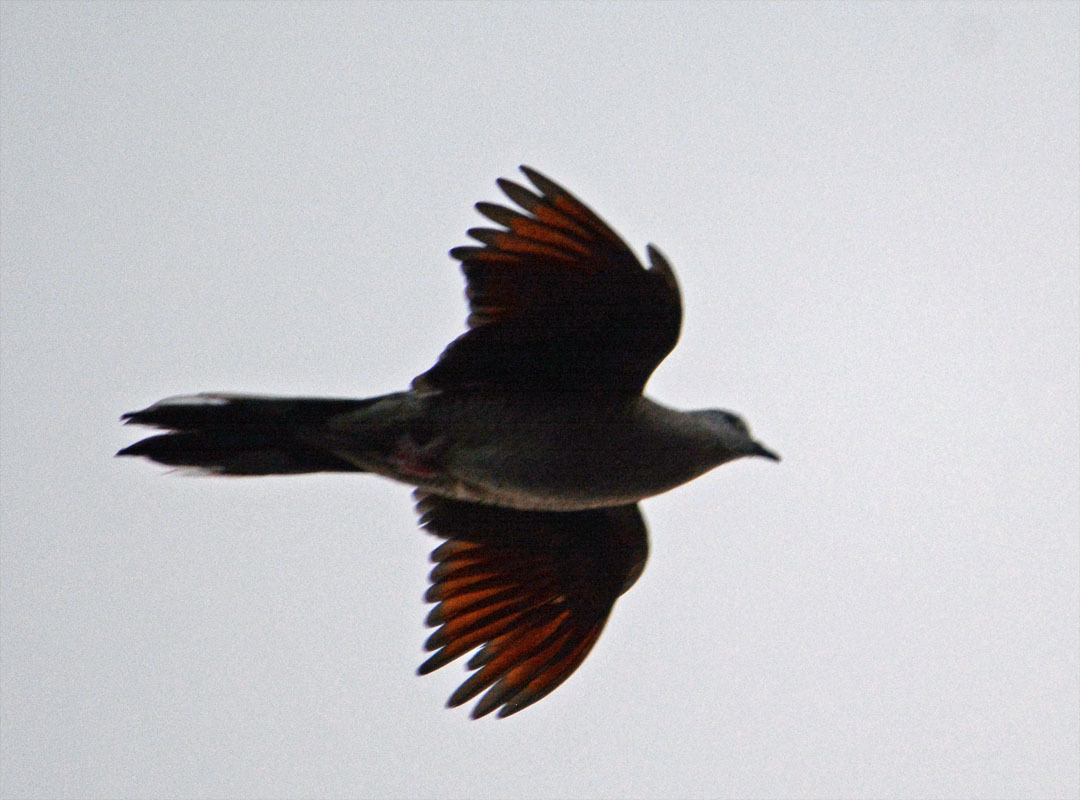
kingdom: Animalia
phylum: Chordata
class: Aves
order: Columbiformes
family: Columbidae
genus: Columbina
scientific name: Columbina inca
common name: Inca dove
